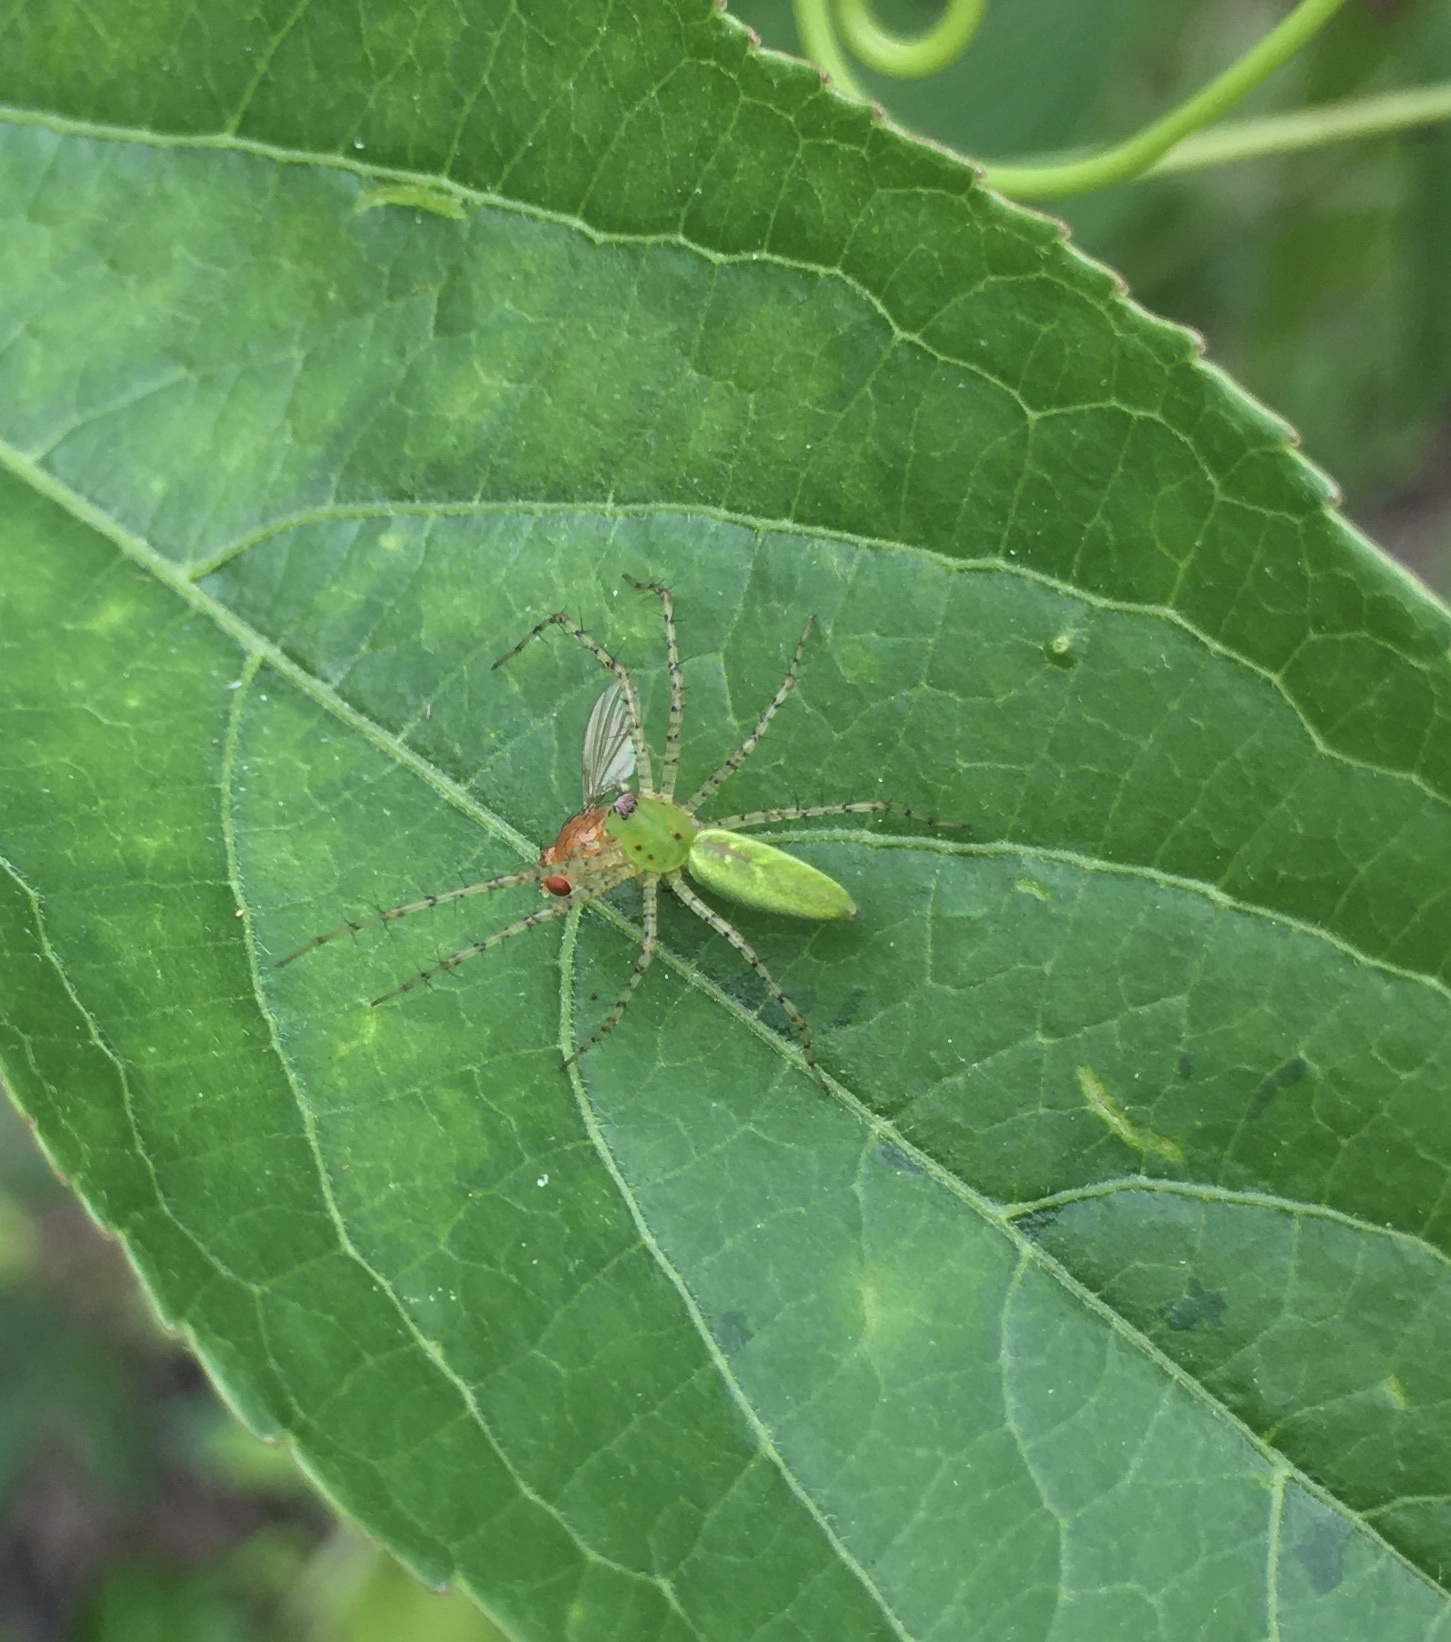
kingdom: Animalia
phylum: Arthropoda
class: Arachnida
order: Araneae
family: Oxyopidae
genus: Peucetia
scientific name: Peucetia viridans
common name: Lynx spiders
